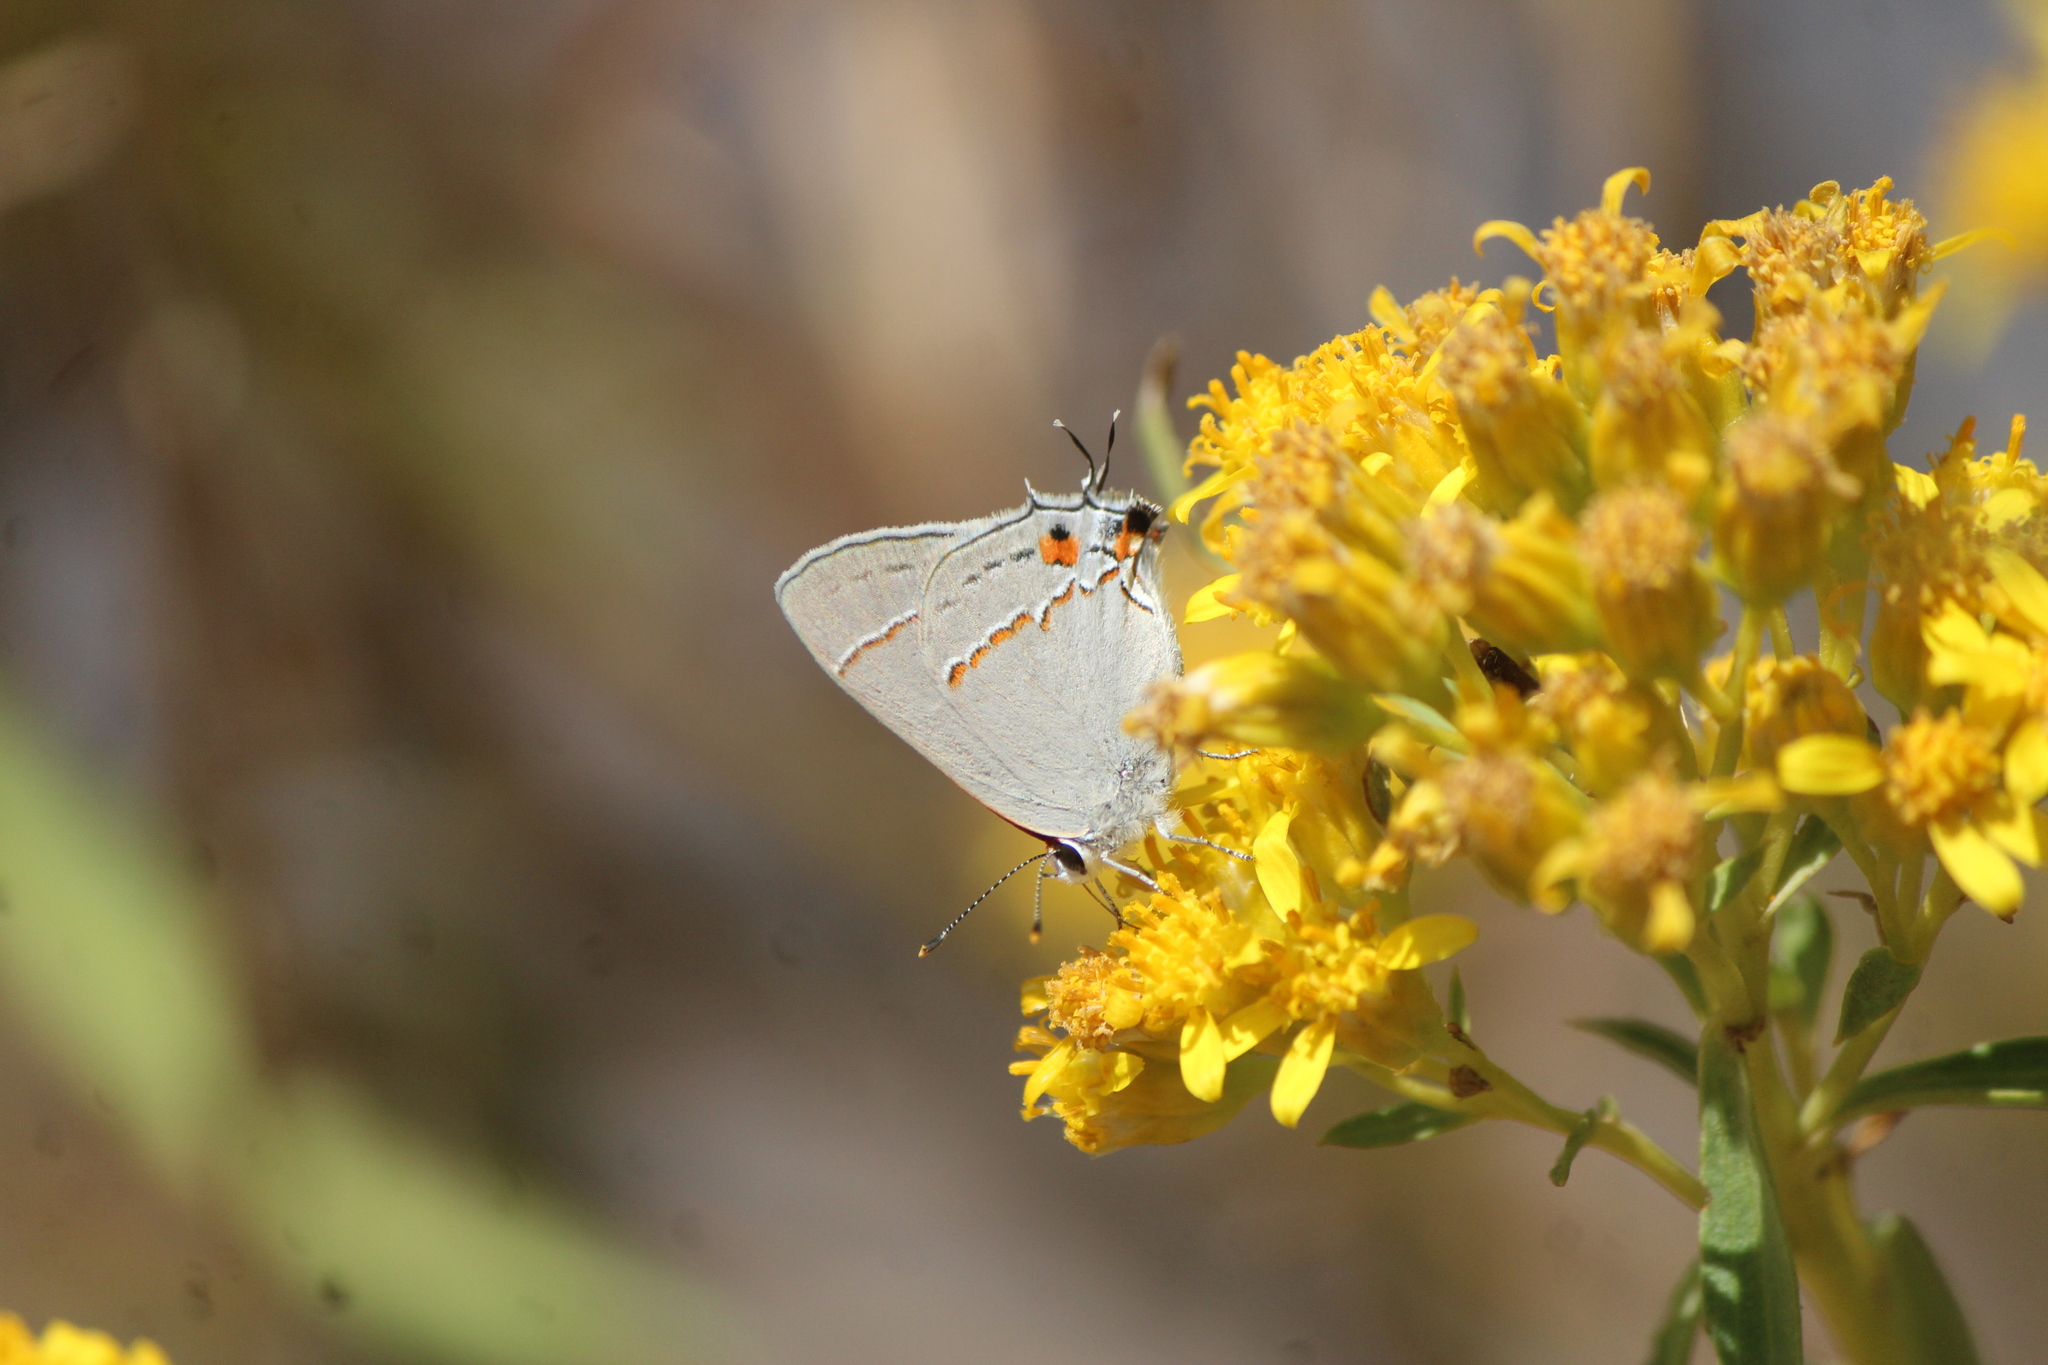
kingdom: Animalia
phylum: Arthropoda
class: Insecta
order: Lepidoptera
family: Lycaenidae
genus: Strymon
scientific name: Strymon melinus
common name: Gray hairstreak
